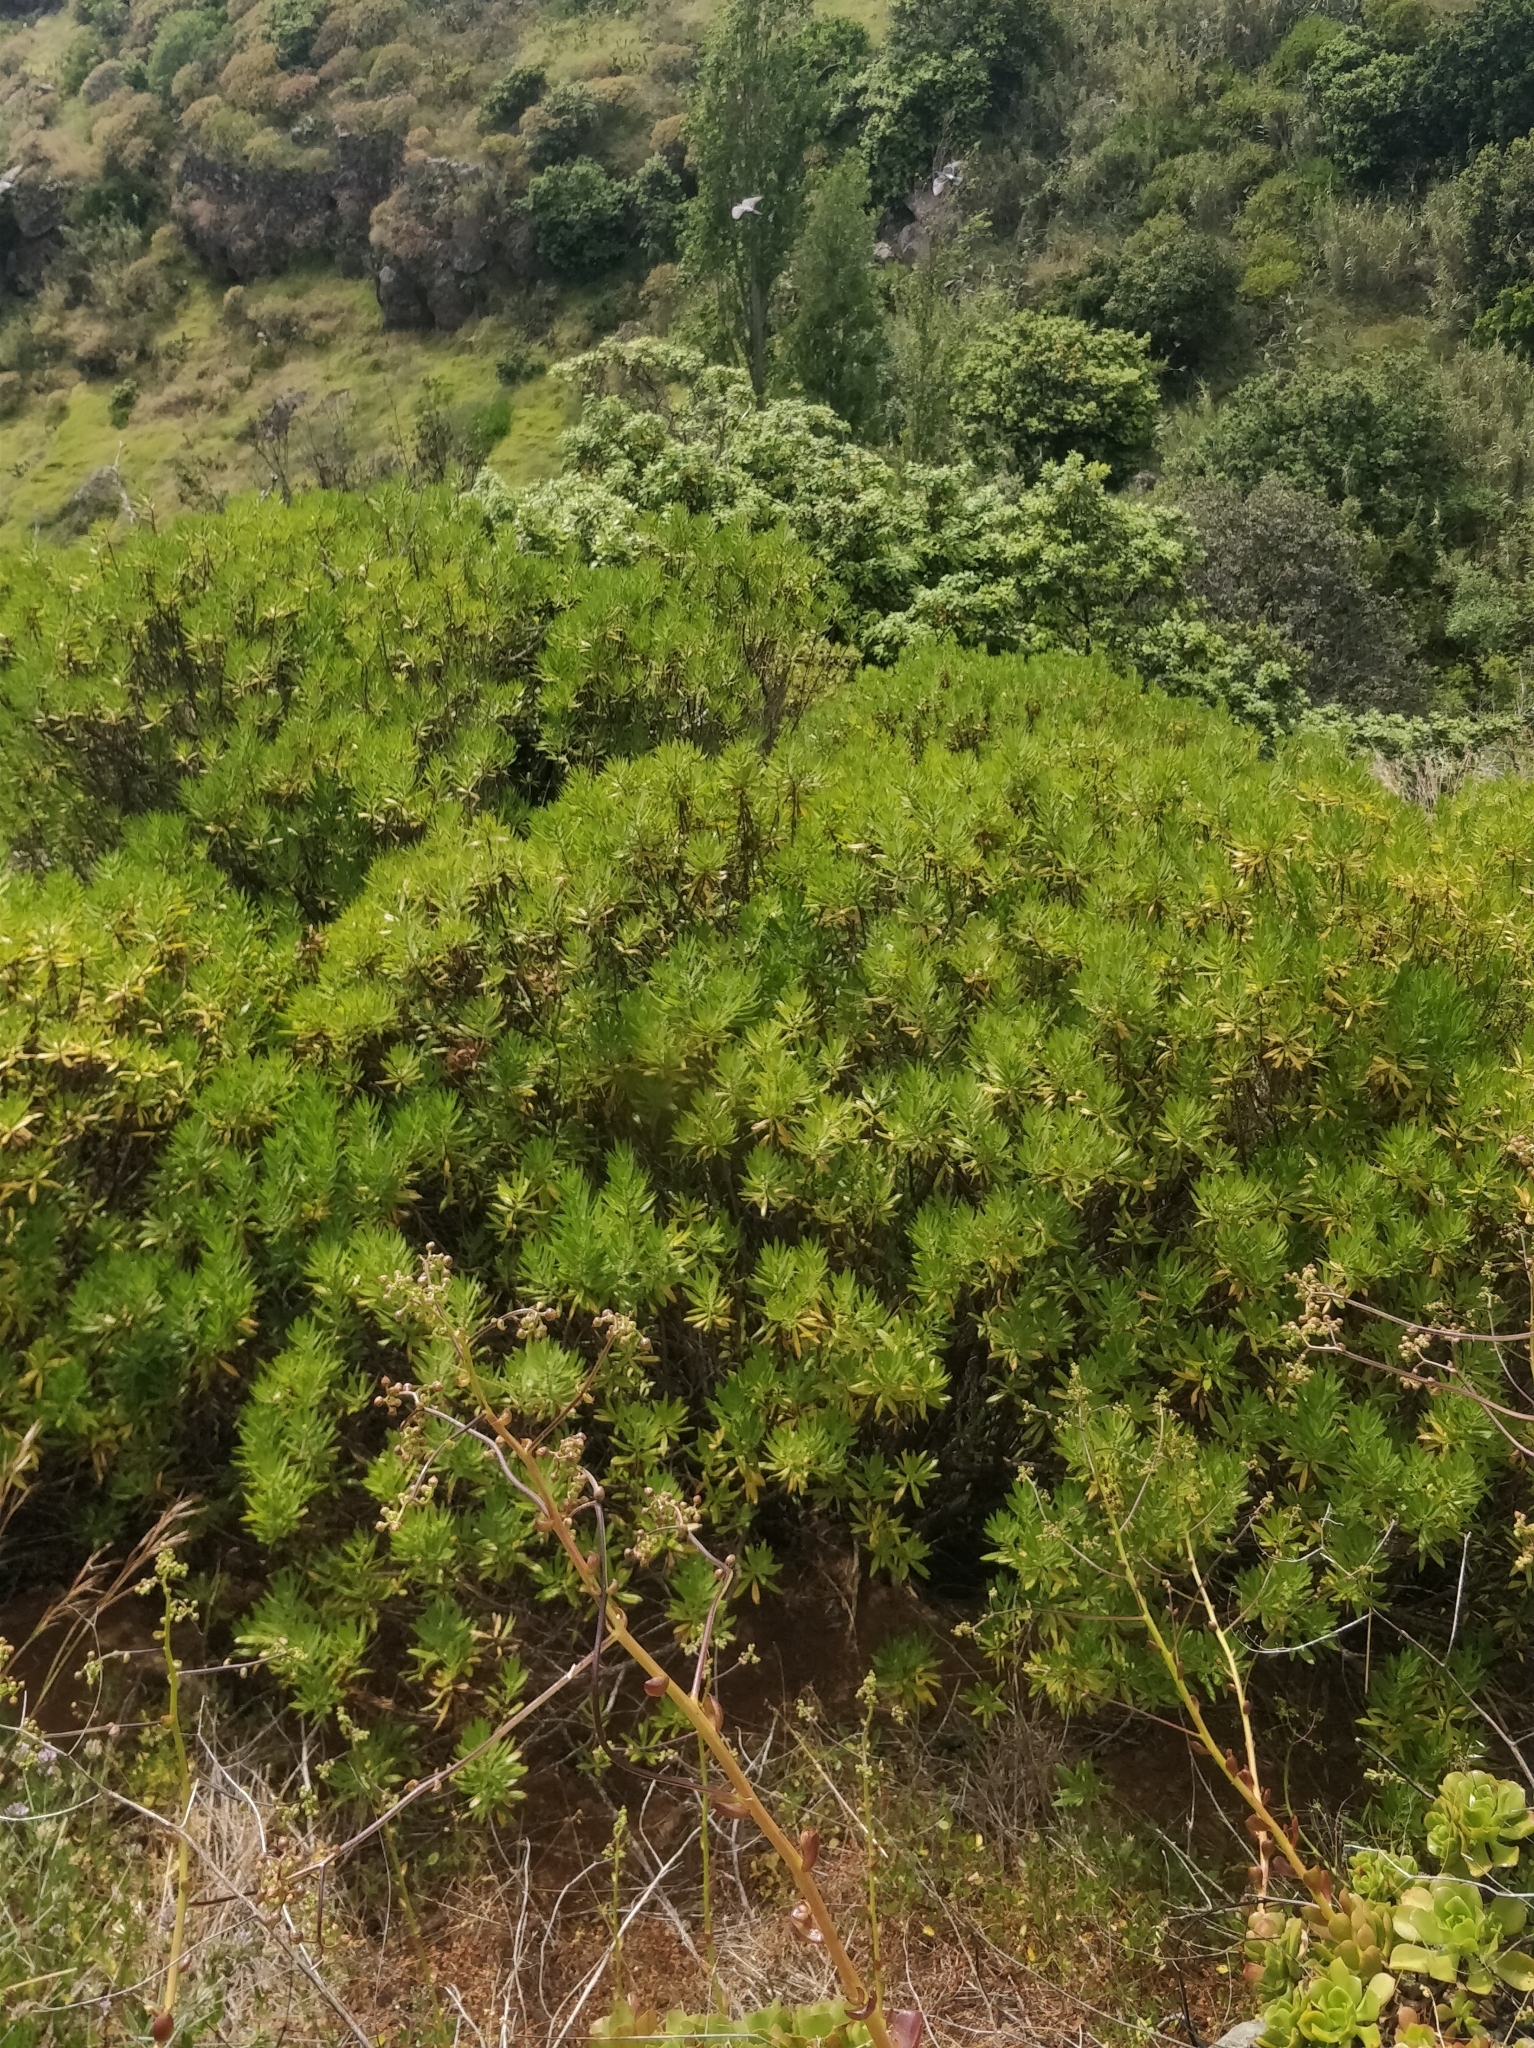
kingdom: Plantae
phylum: Tracheophyta
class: Magnoliopsida
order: Lamiales
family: Plantaginaceae
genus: Globularia
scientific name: Globularia salicina
